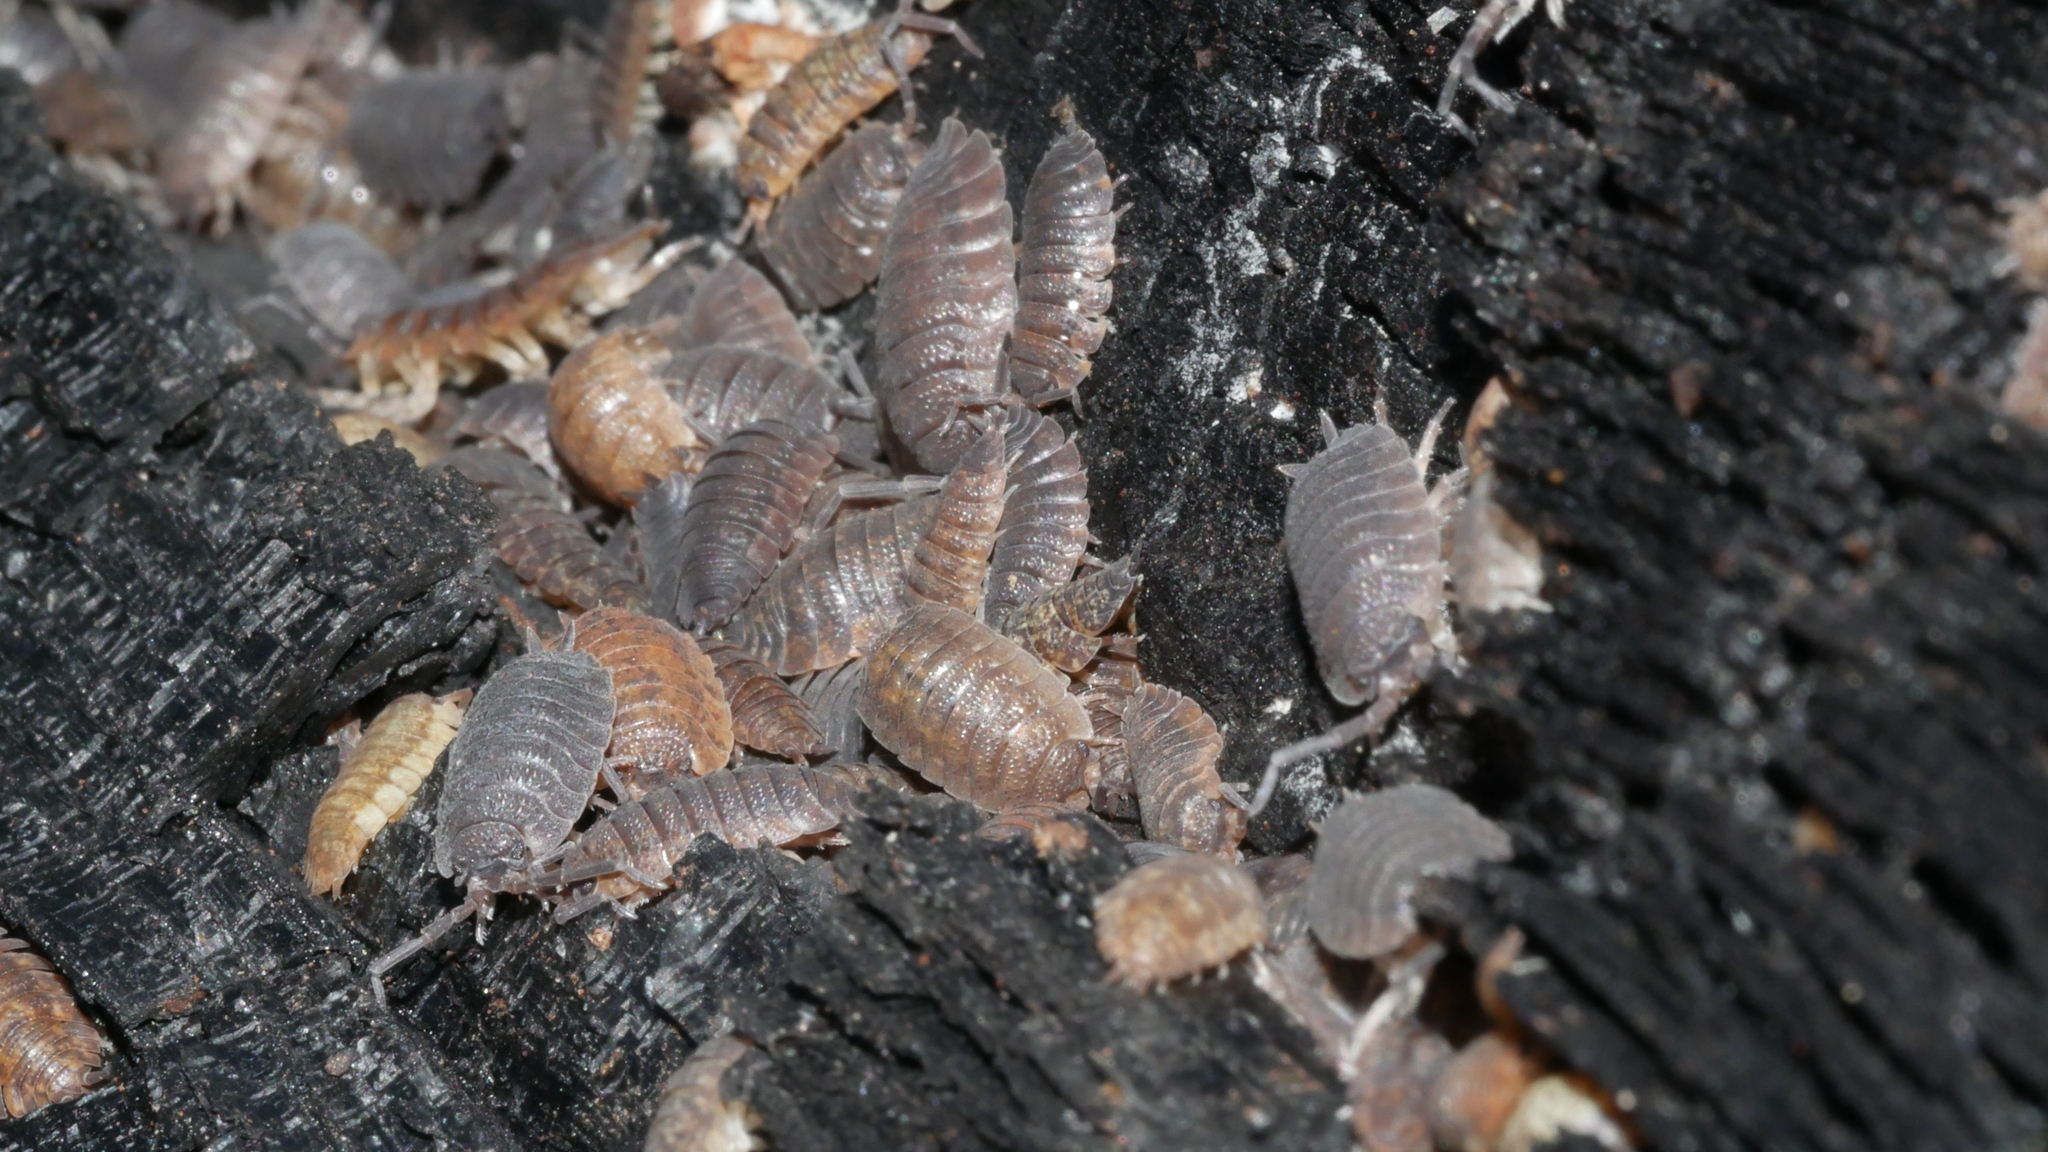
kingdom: Animalia
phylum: Arthropoda
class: Malacostraca
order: Isopoda
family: Porcellionidae
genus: Porcellio
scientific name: Porcellio scaber
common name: Common rough woodlouse
